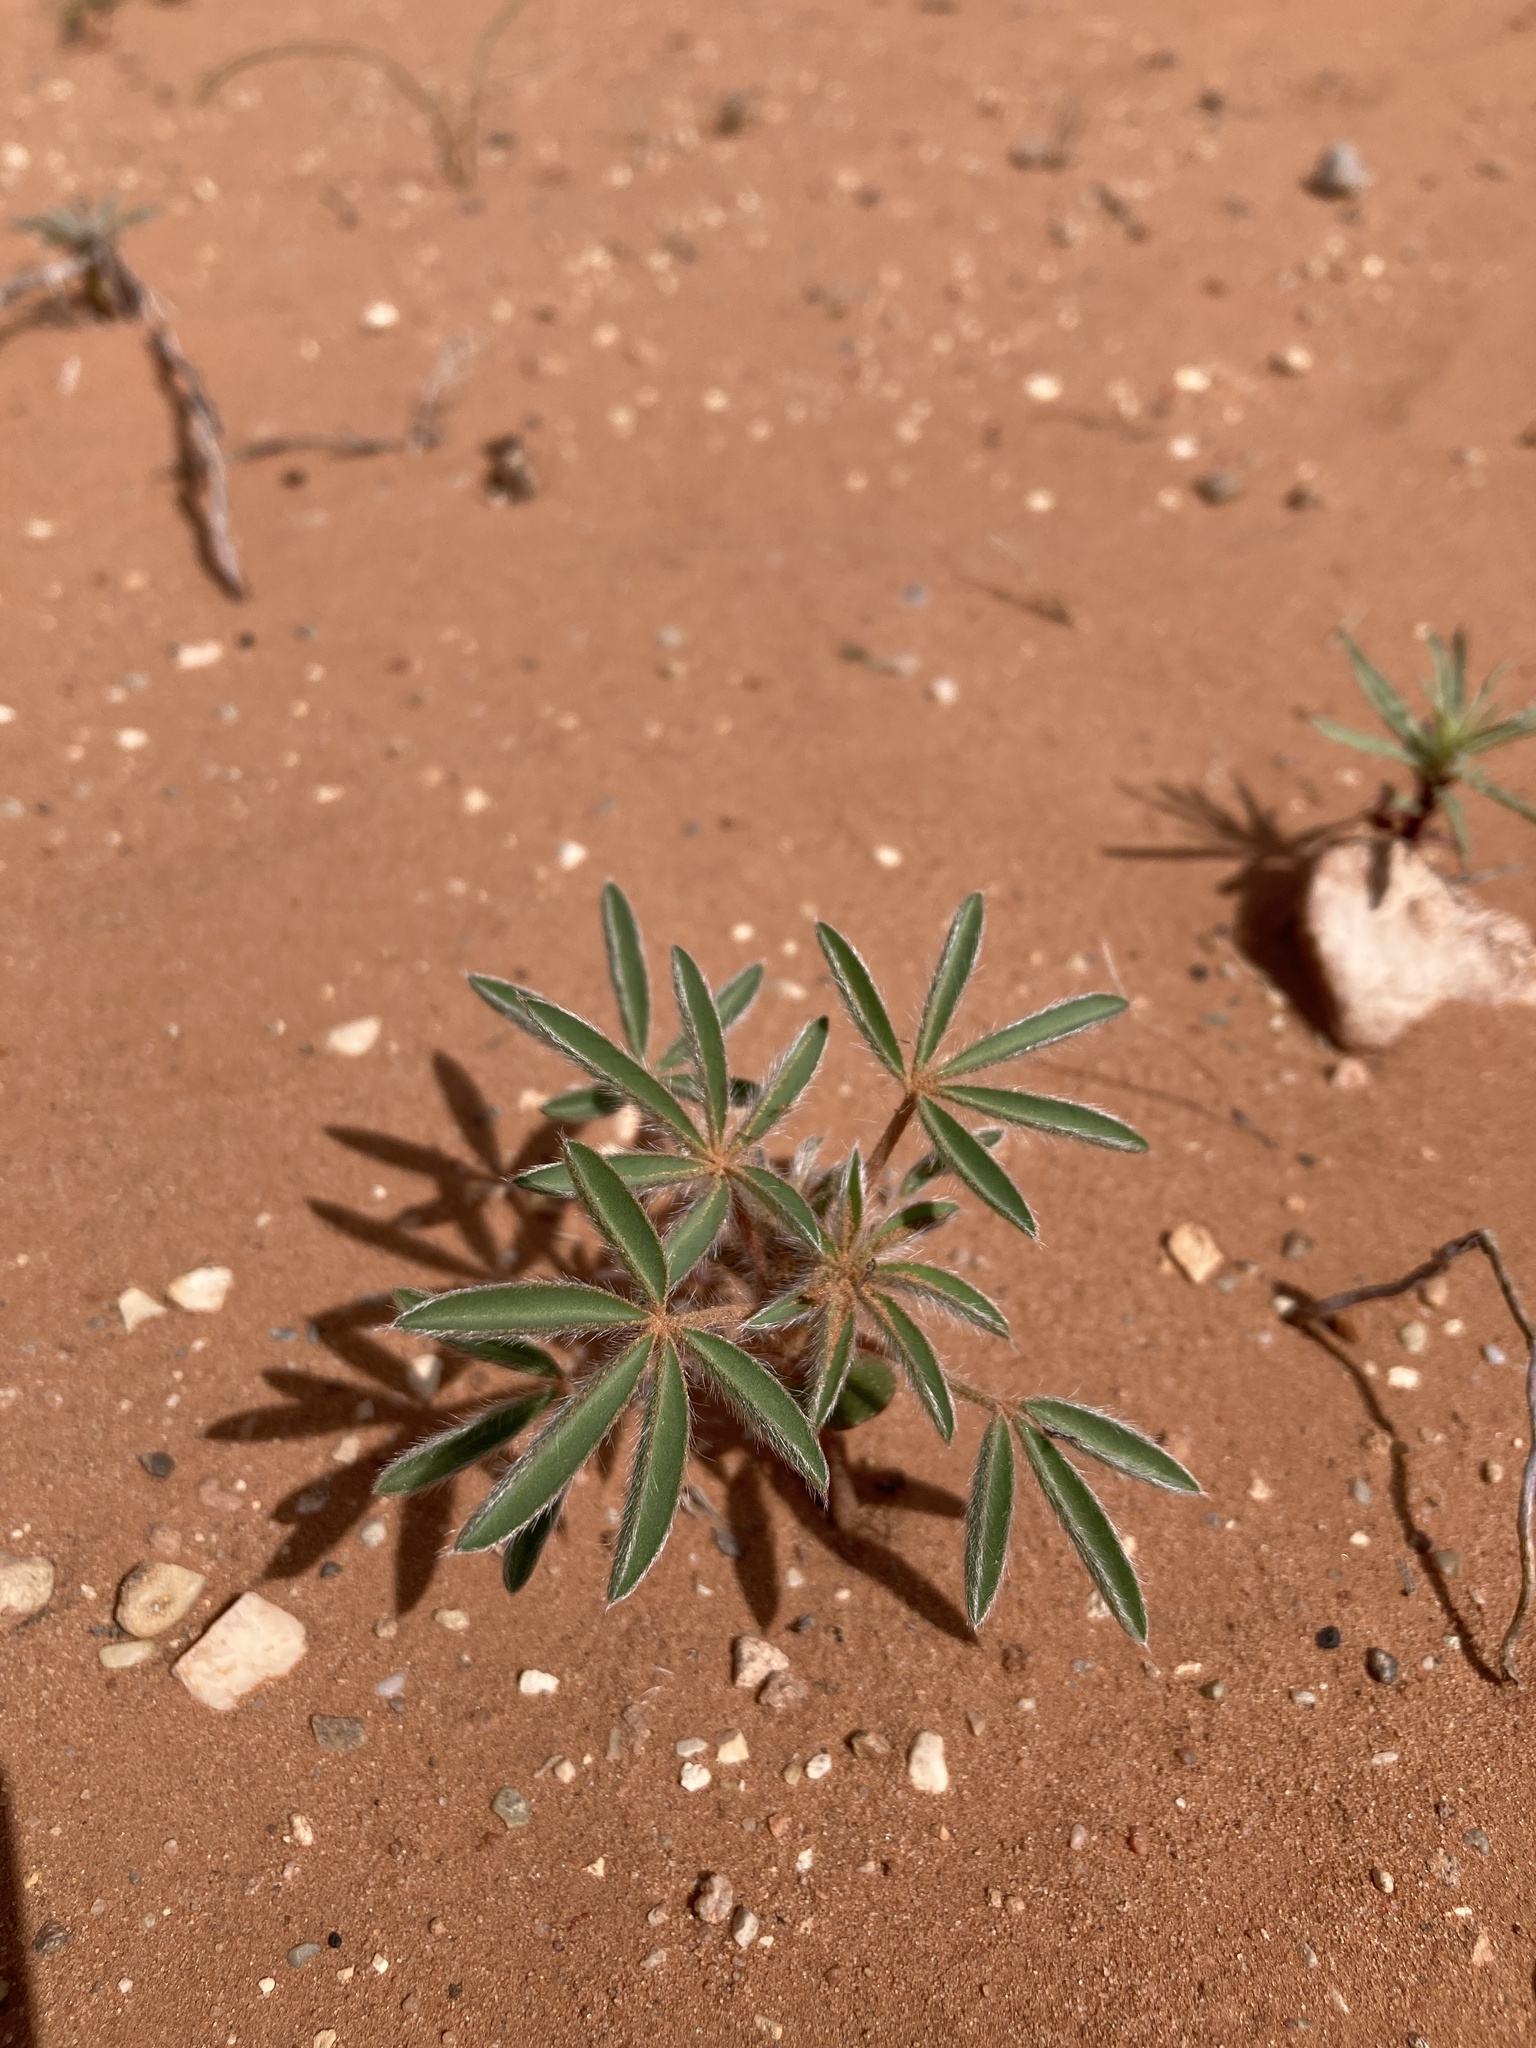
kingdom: Plantae
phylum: Tracheophyta
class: Magnoliopsida
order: Fabales
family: Fabaceae
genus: Lupinus
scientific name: Lupinus pusillus
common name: Low lupine
